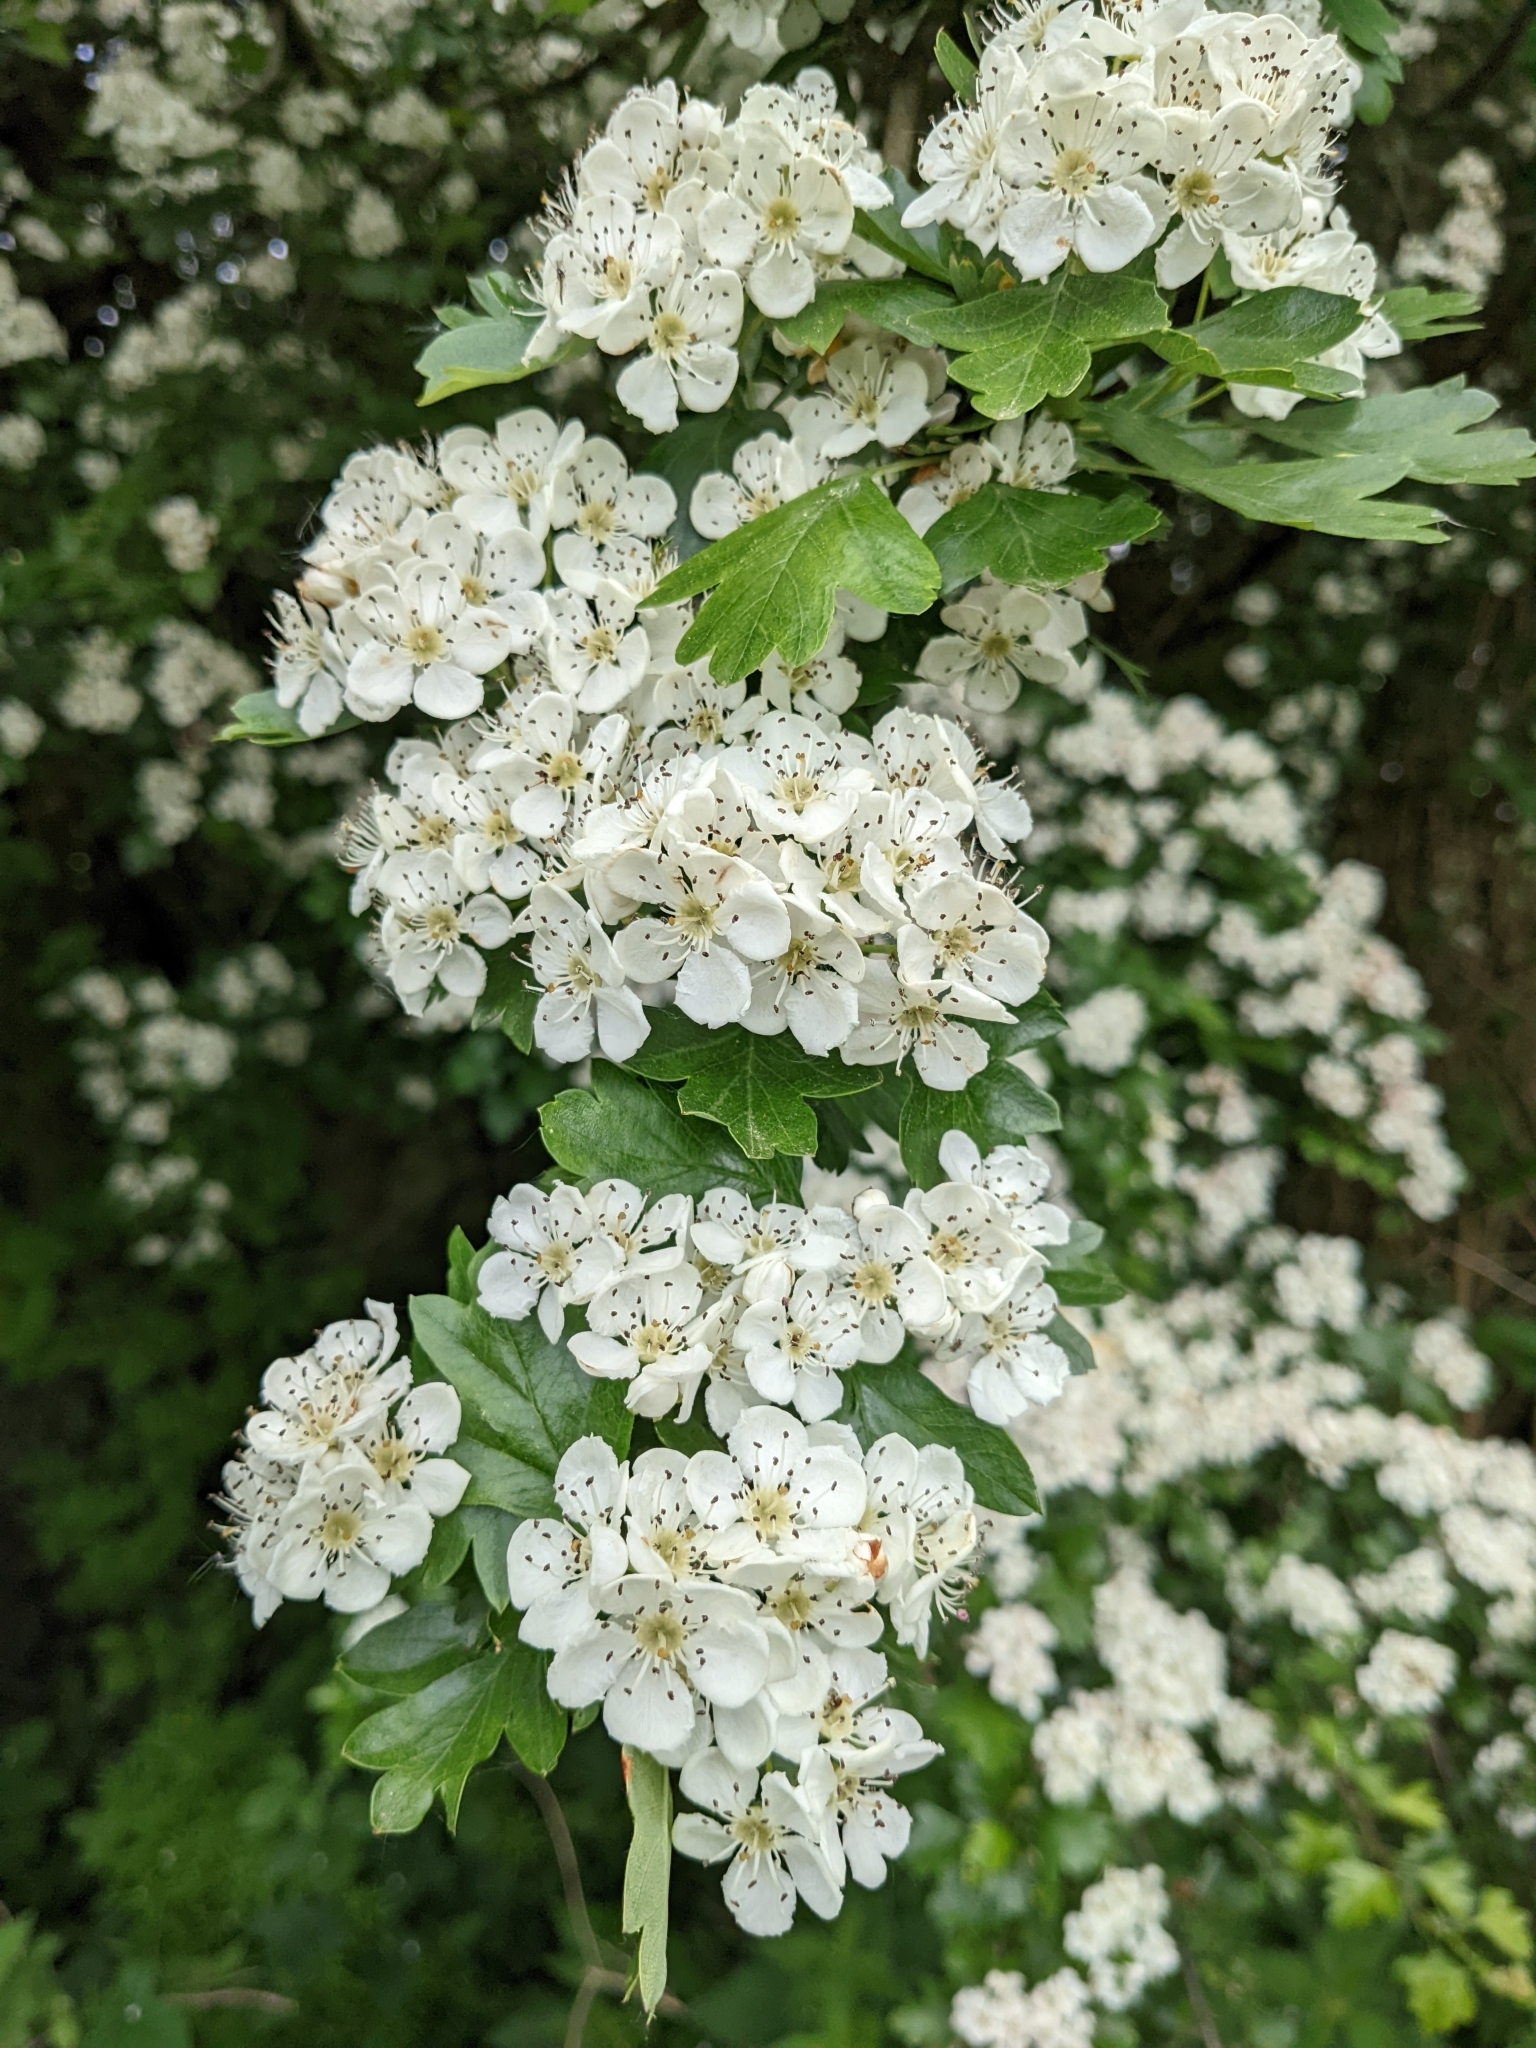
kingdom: Plantae
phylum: Tracheophyta
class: Magnoliopsida
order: Rosales
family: Rosaceae
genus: Crataegus
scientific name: Crataegus monogyna
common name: Hawthorn
